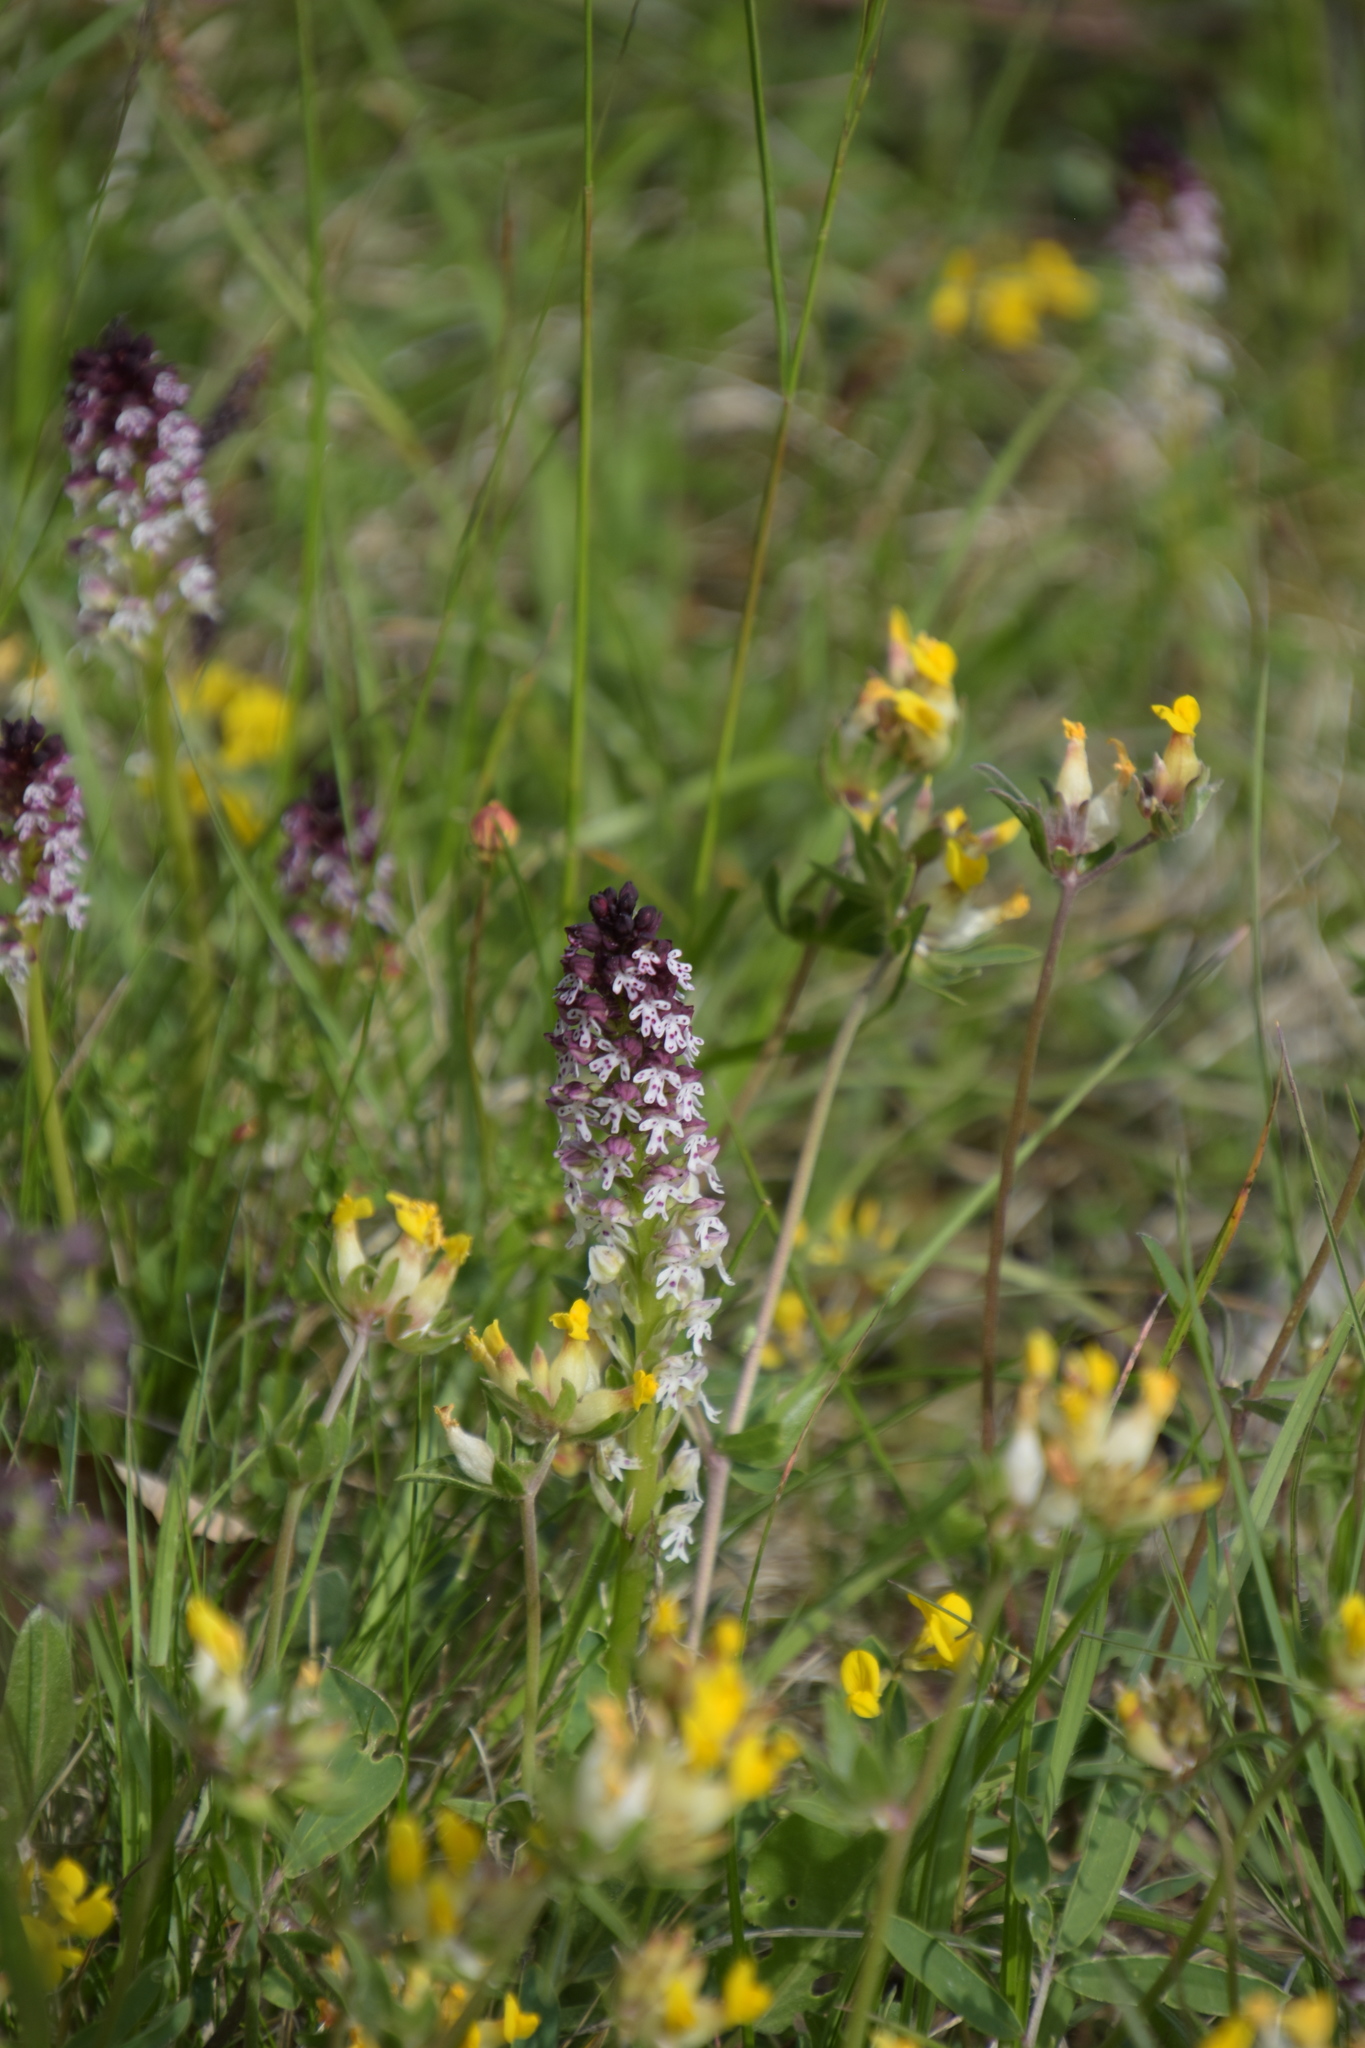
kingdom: Plantae
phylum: Tracheophyta
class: Liliopsida
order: Asparagales
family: Orchidaceae
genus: Neotinea
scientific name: Neotinea ustulata
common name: Burnt orchid
